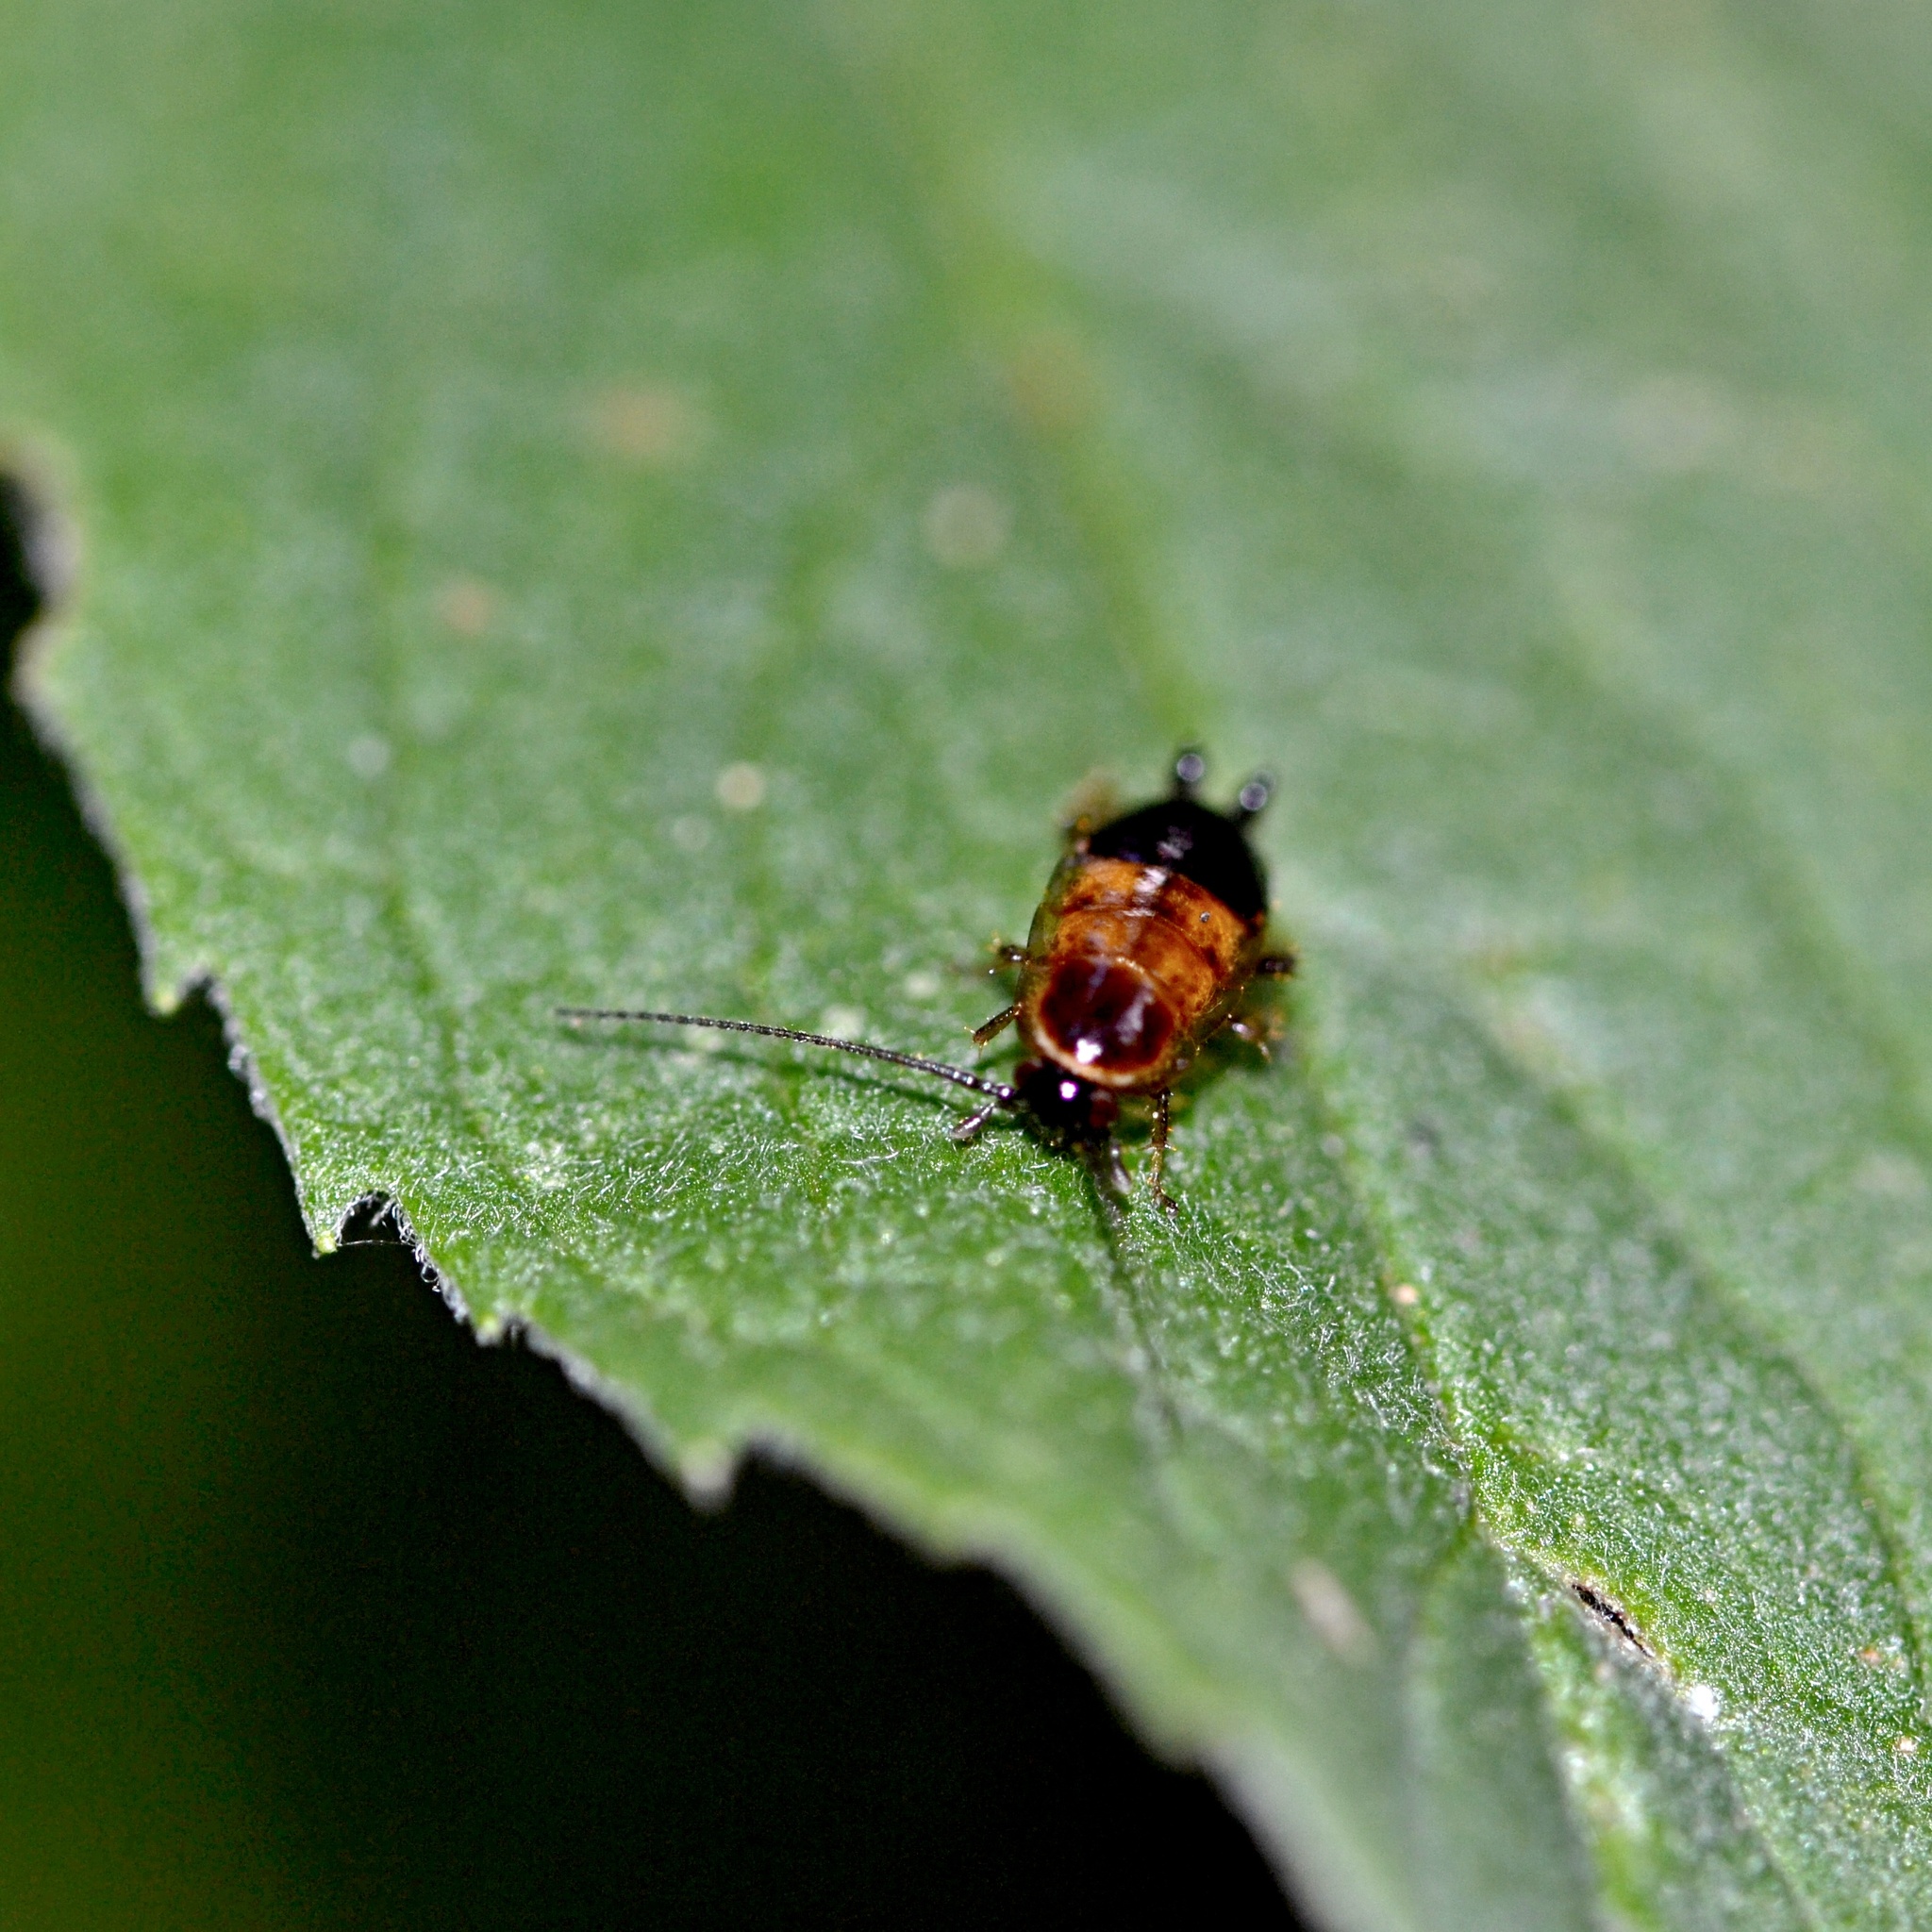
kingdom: Animalia
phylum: Arthropoda
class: Insecta
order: Blattodea
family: Ectobiidae
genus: Ectobius
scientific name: Ectobius sylvestris
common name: Forest cockroach
